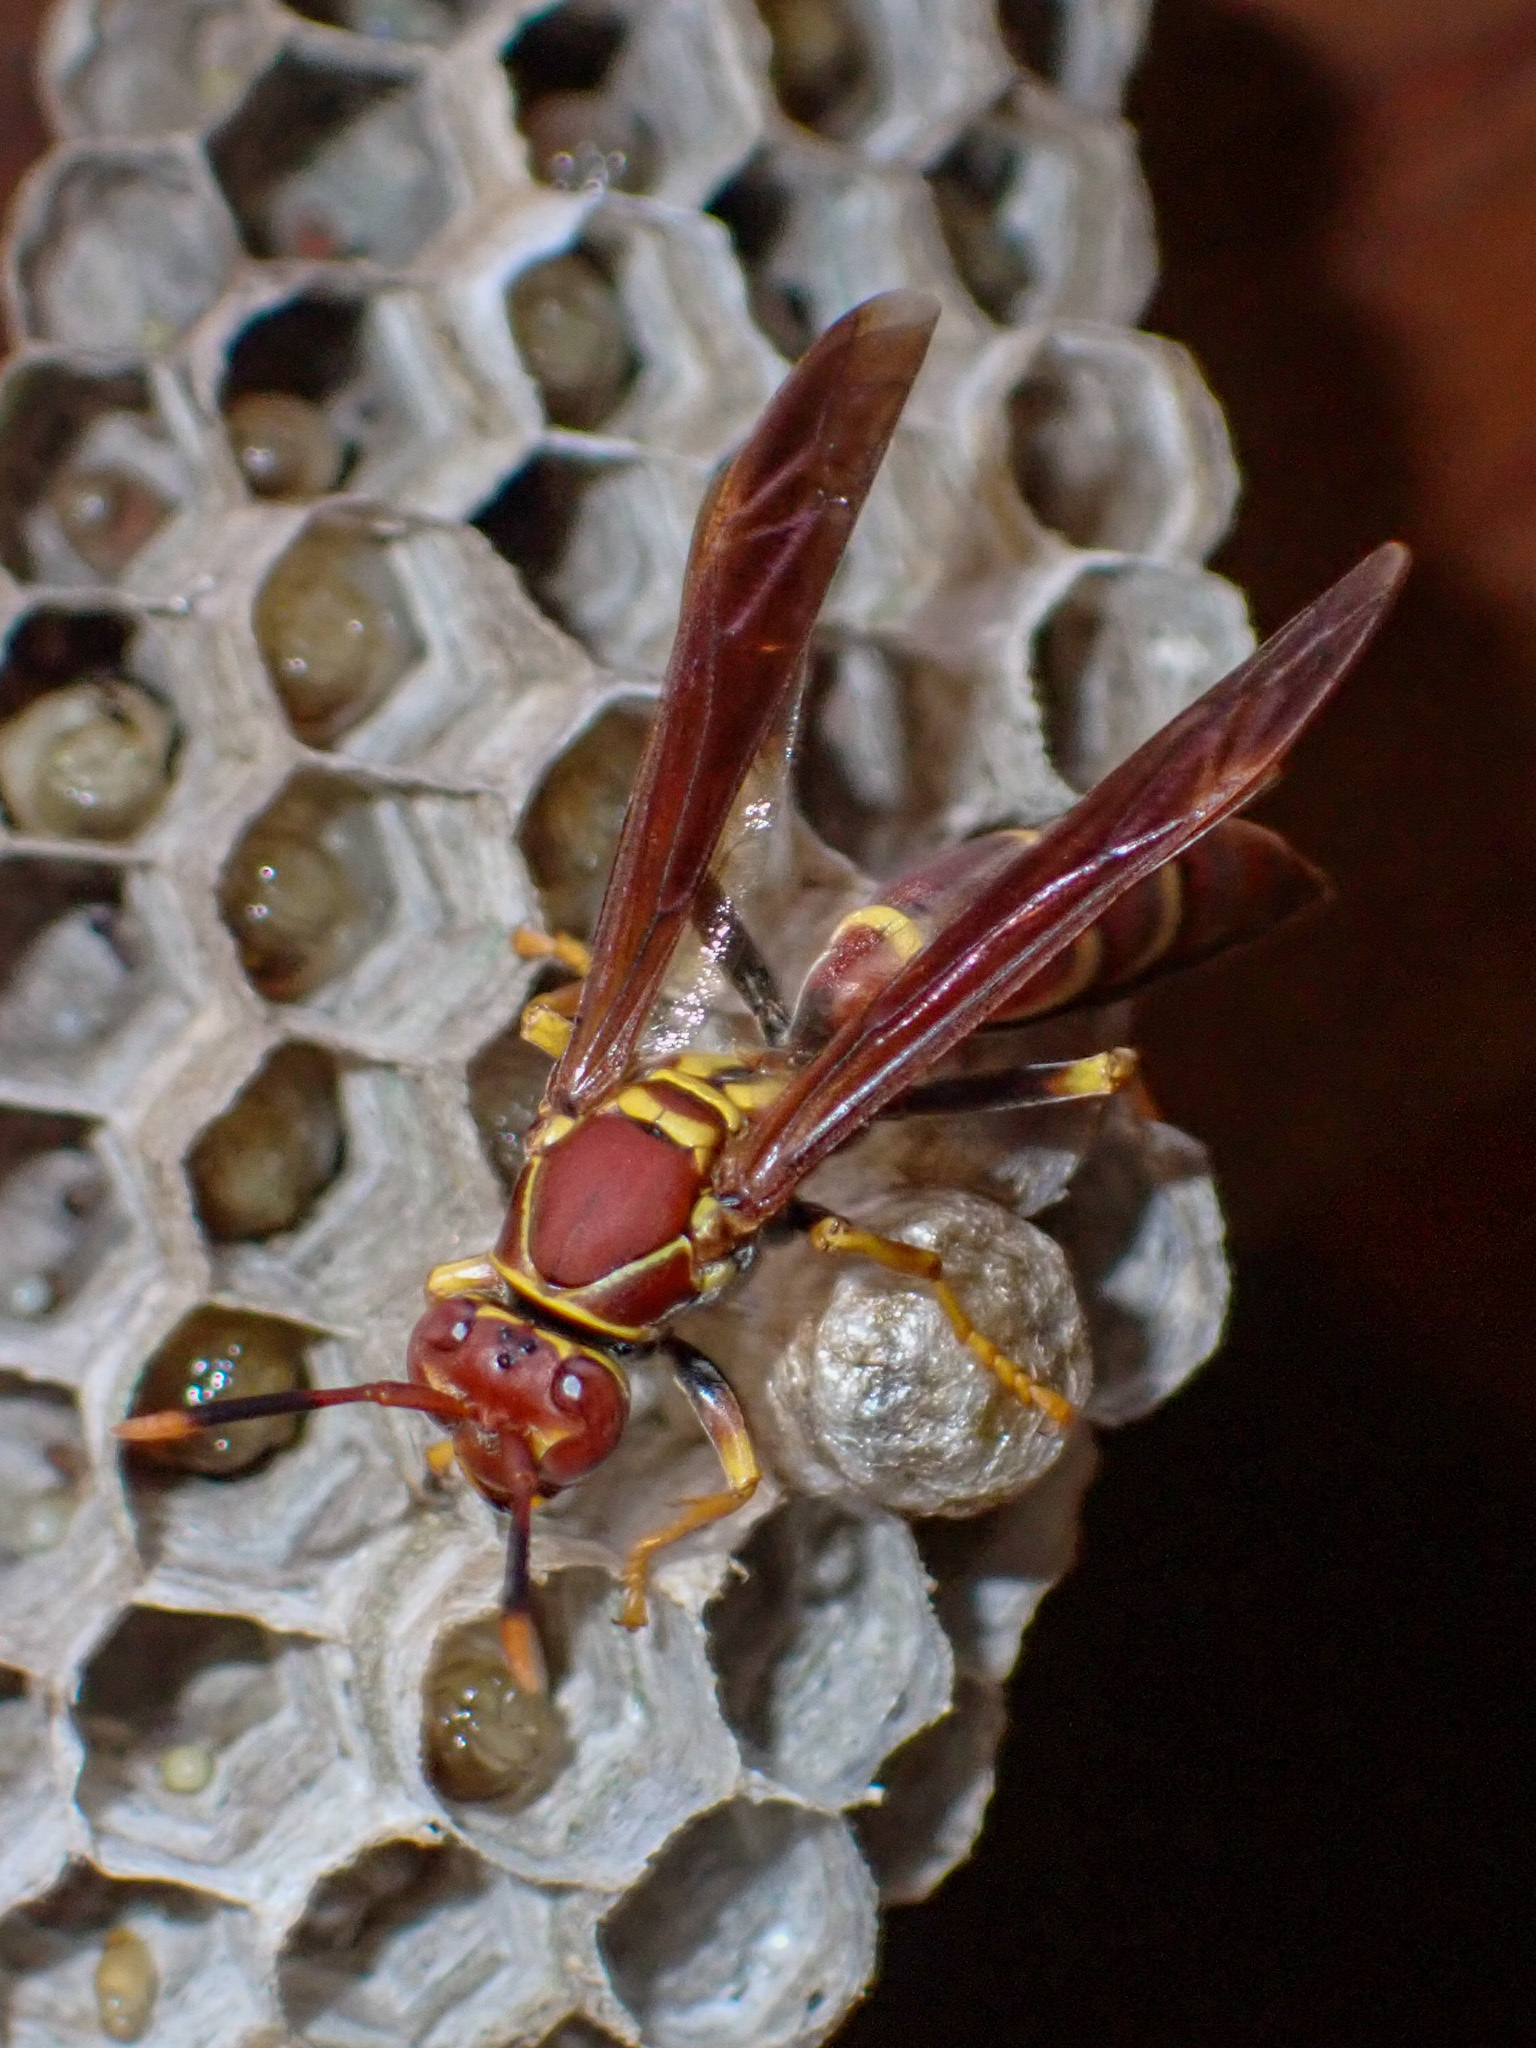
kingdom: Animalia
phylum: Arthropoda
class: Insecta
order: Hymenoptera
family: Eumenidae
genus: Polistes
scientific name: Polistes instabilis
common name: Unstable paper wasp
